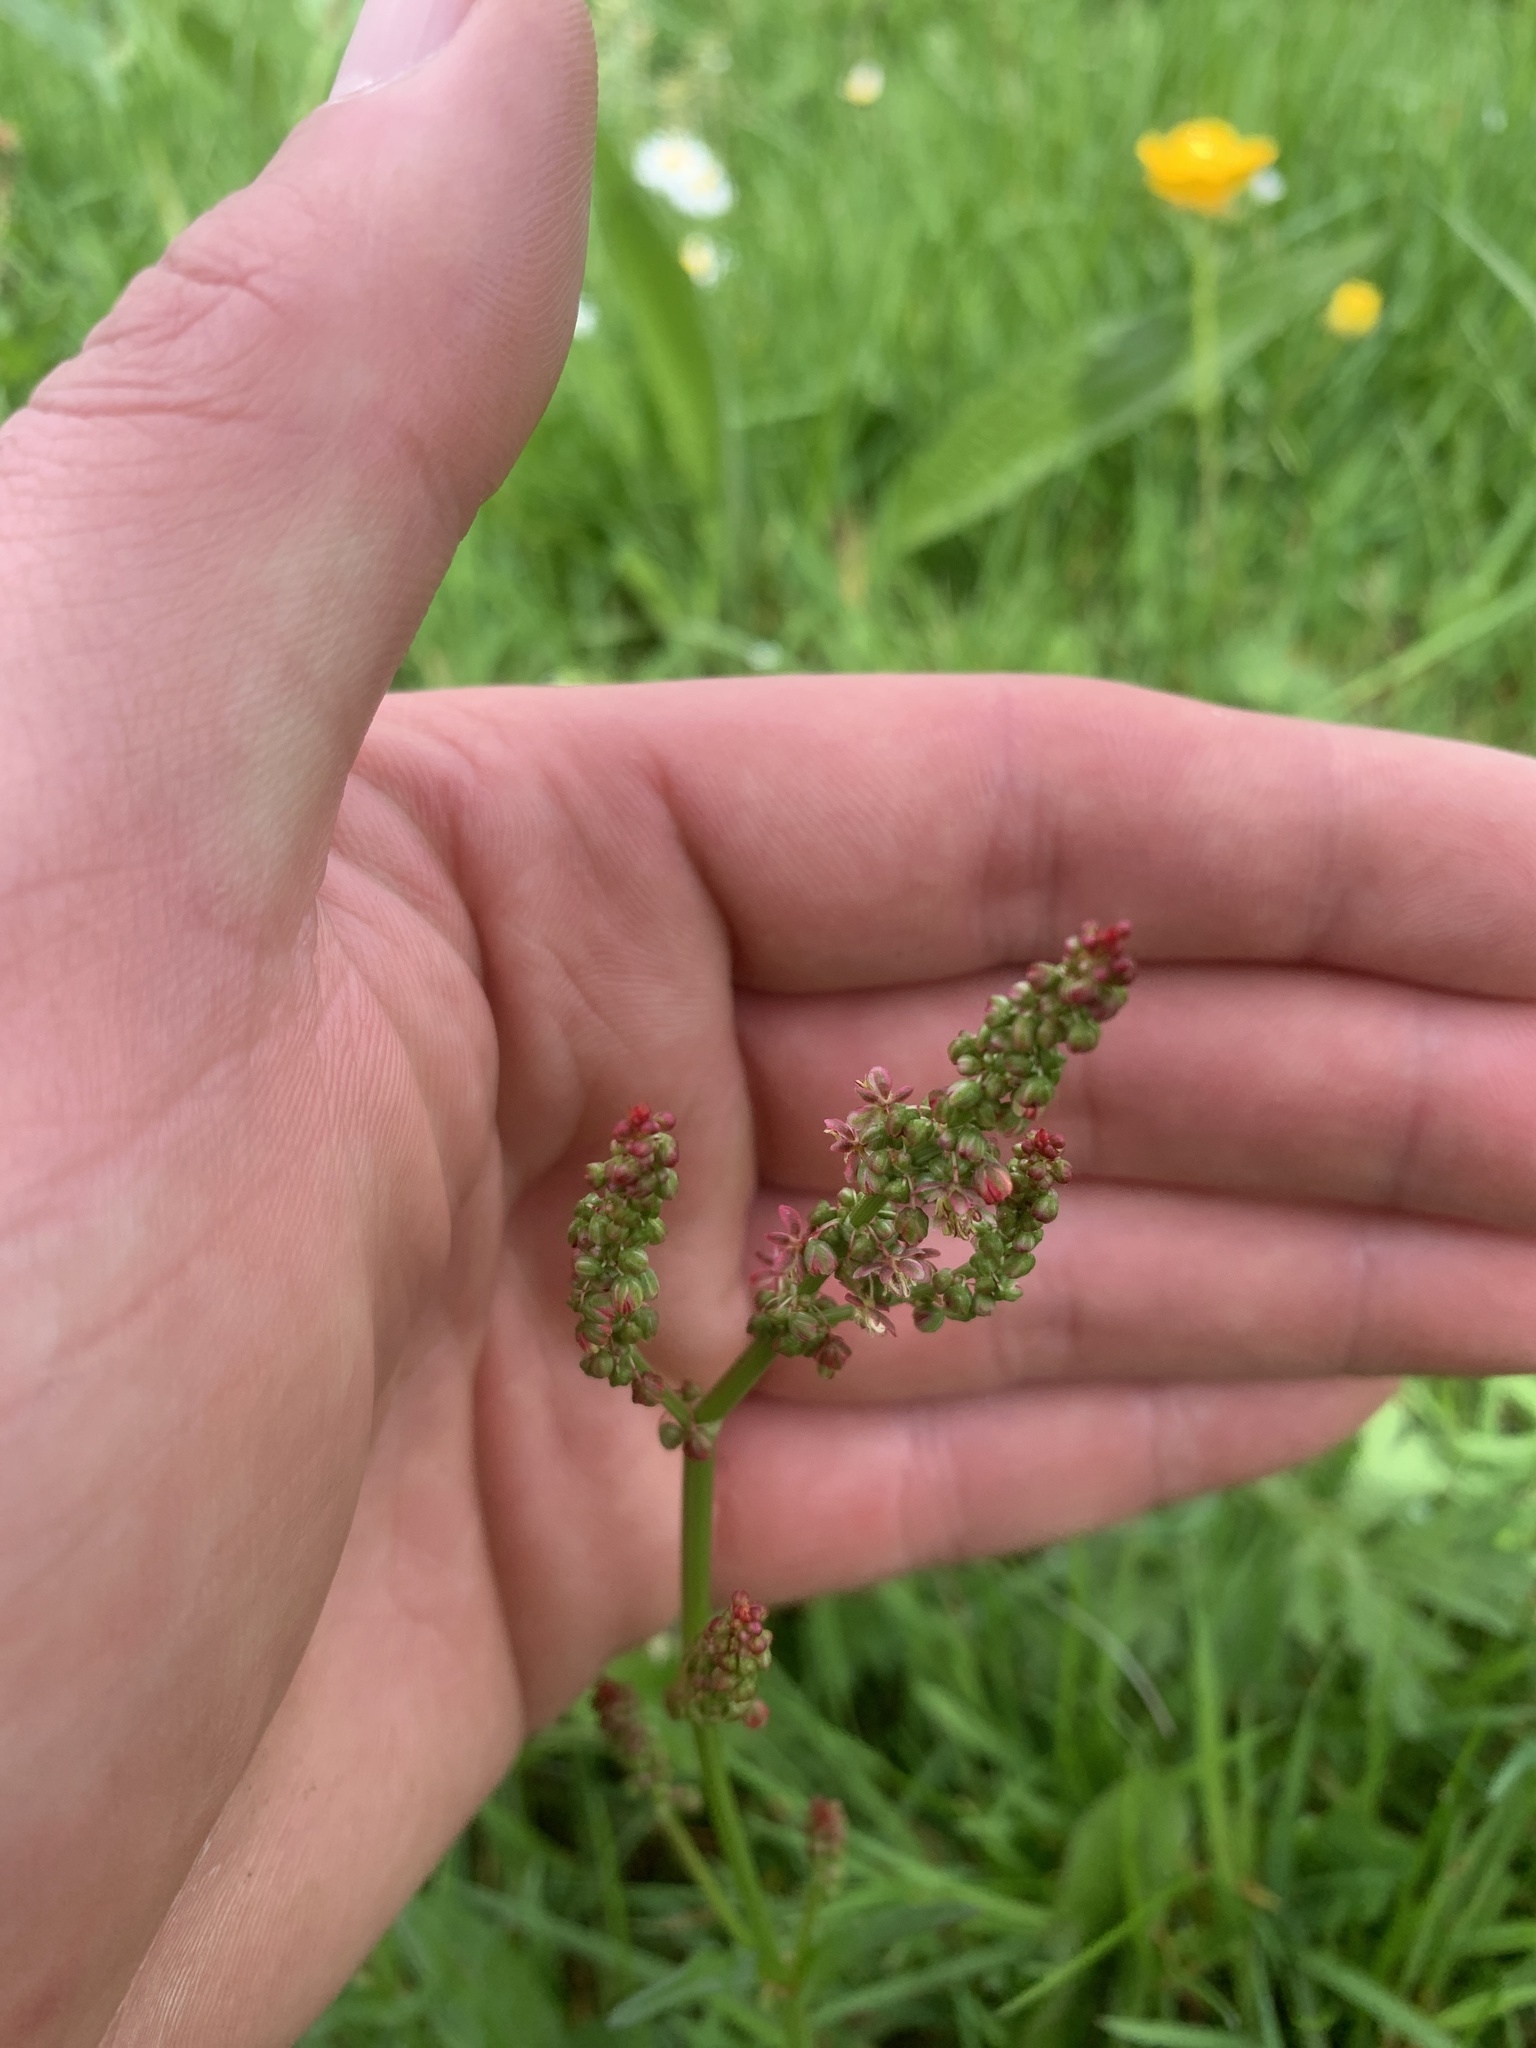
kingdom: Plantae
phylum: Tracheophyta
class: Magnoliopsida
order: Caryophyllales
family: Polygonaceae
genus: Rumex
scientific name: Rumex acetosa
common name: Garden sorrel
